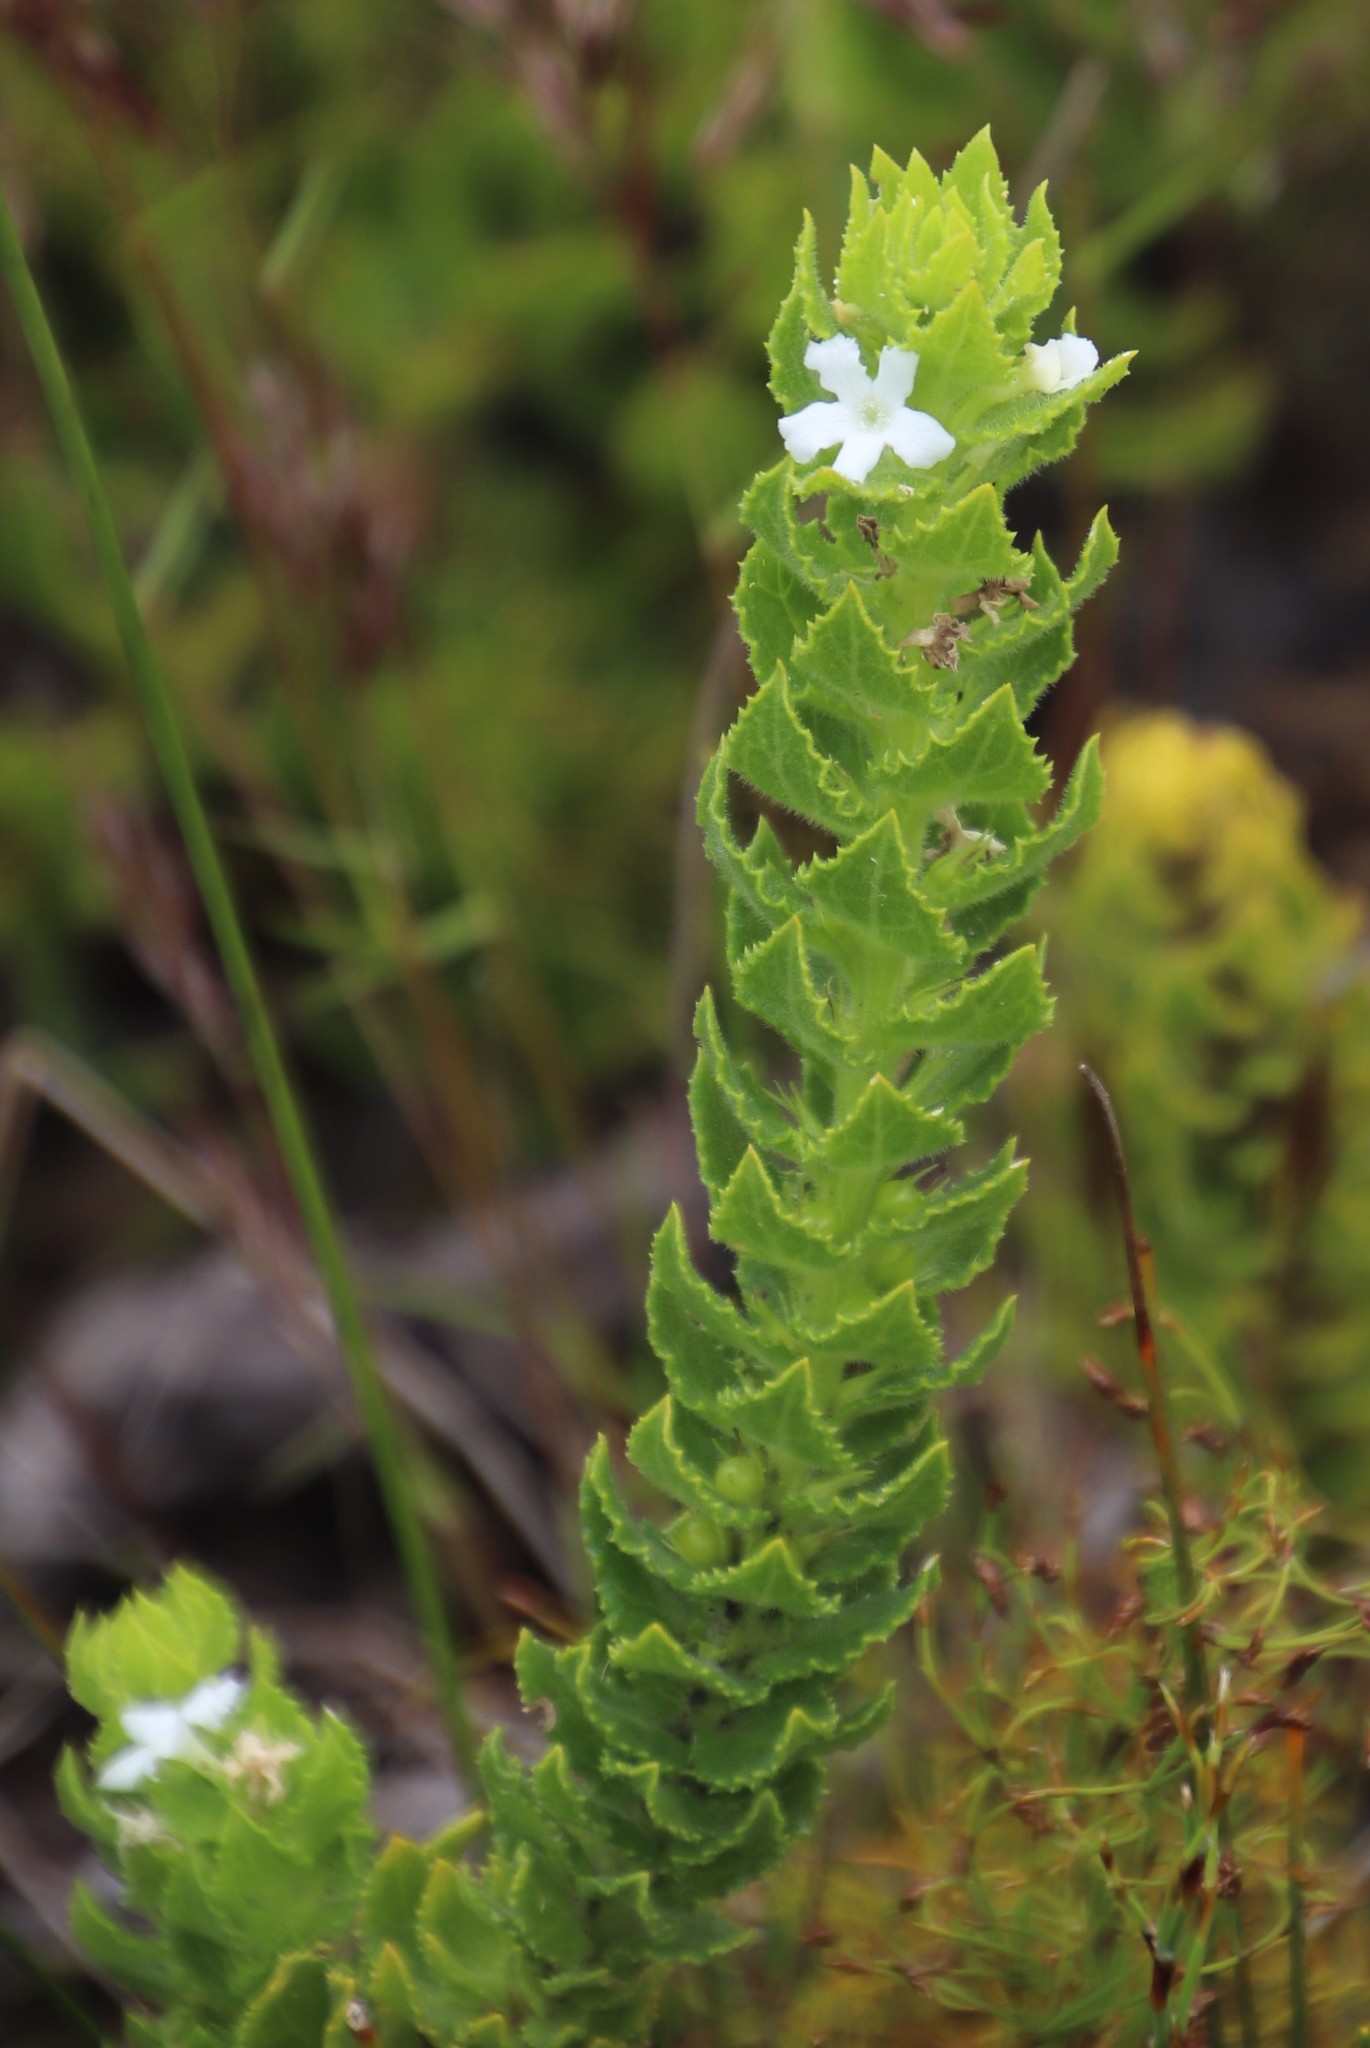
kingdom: Plantae
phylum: Tracheophyta
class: Magnoliopsida
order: Lamiales
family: Scrophulariaceae
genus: Oftia
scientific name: Oftia africana
